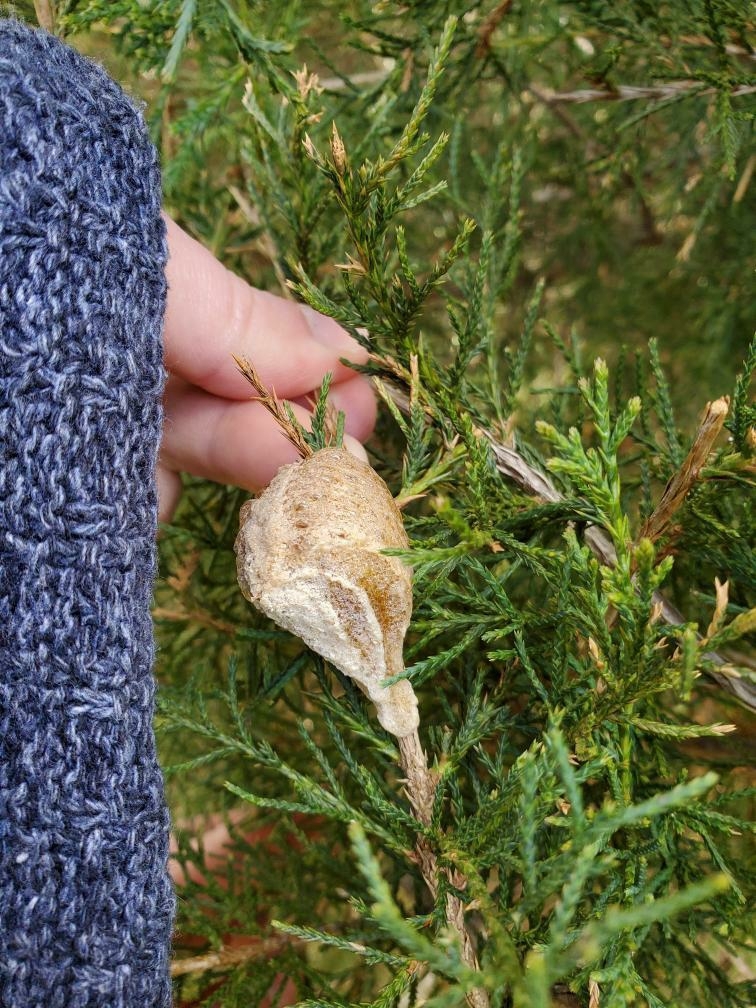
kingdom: Animalia
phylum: Arthropoda
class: Insecta
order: Mantodea
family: Mantidae
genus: Tenodera
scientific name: Tenodera sinensis
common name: Chinese mantis
